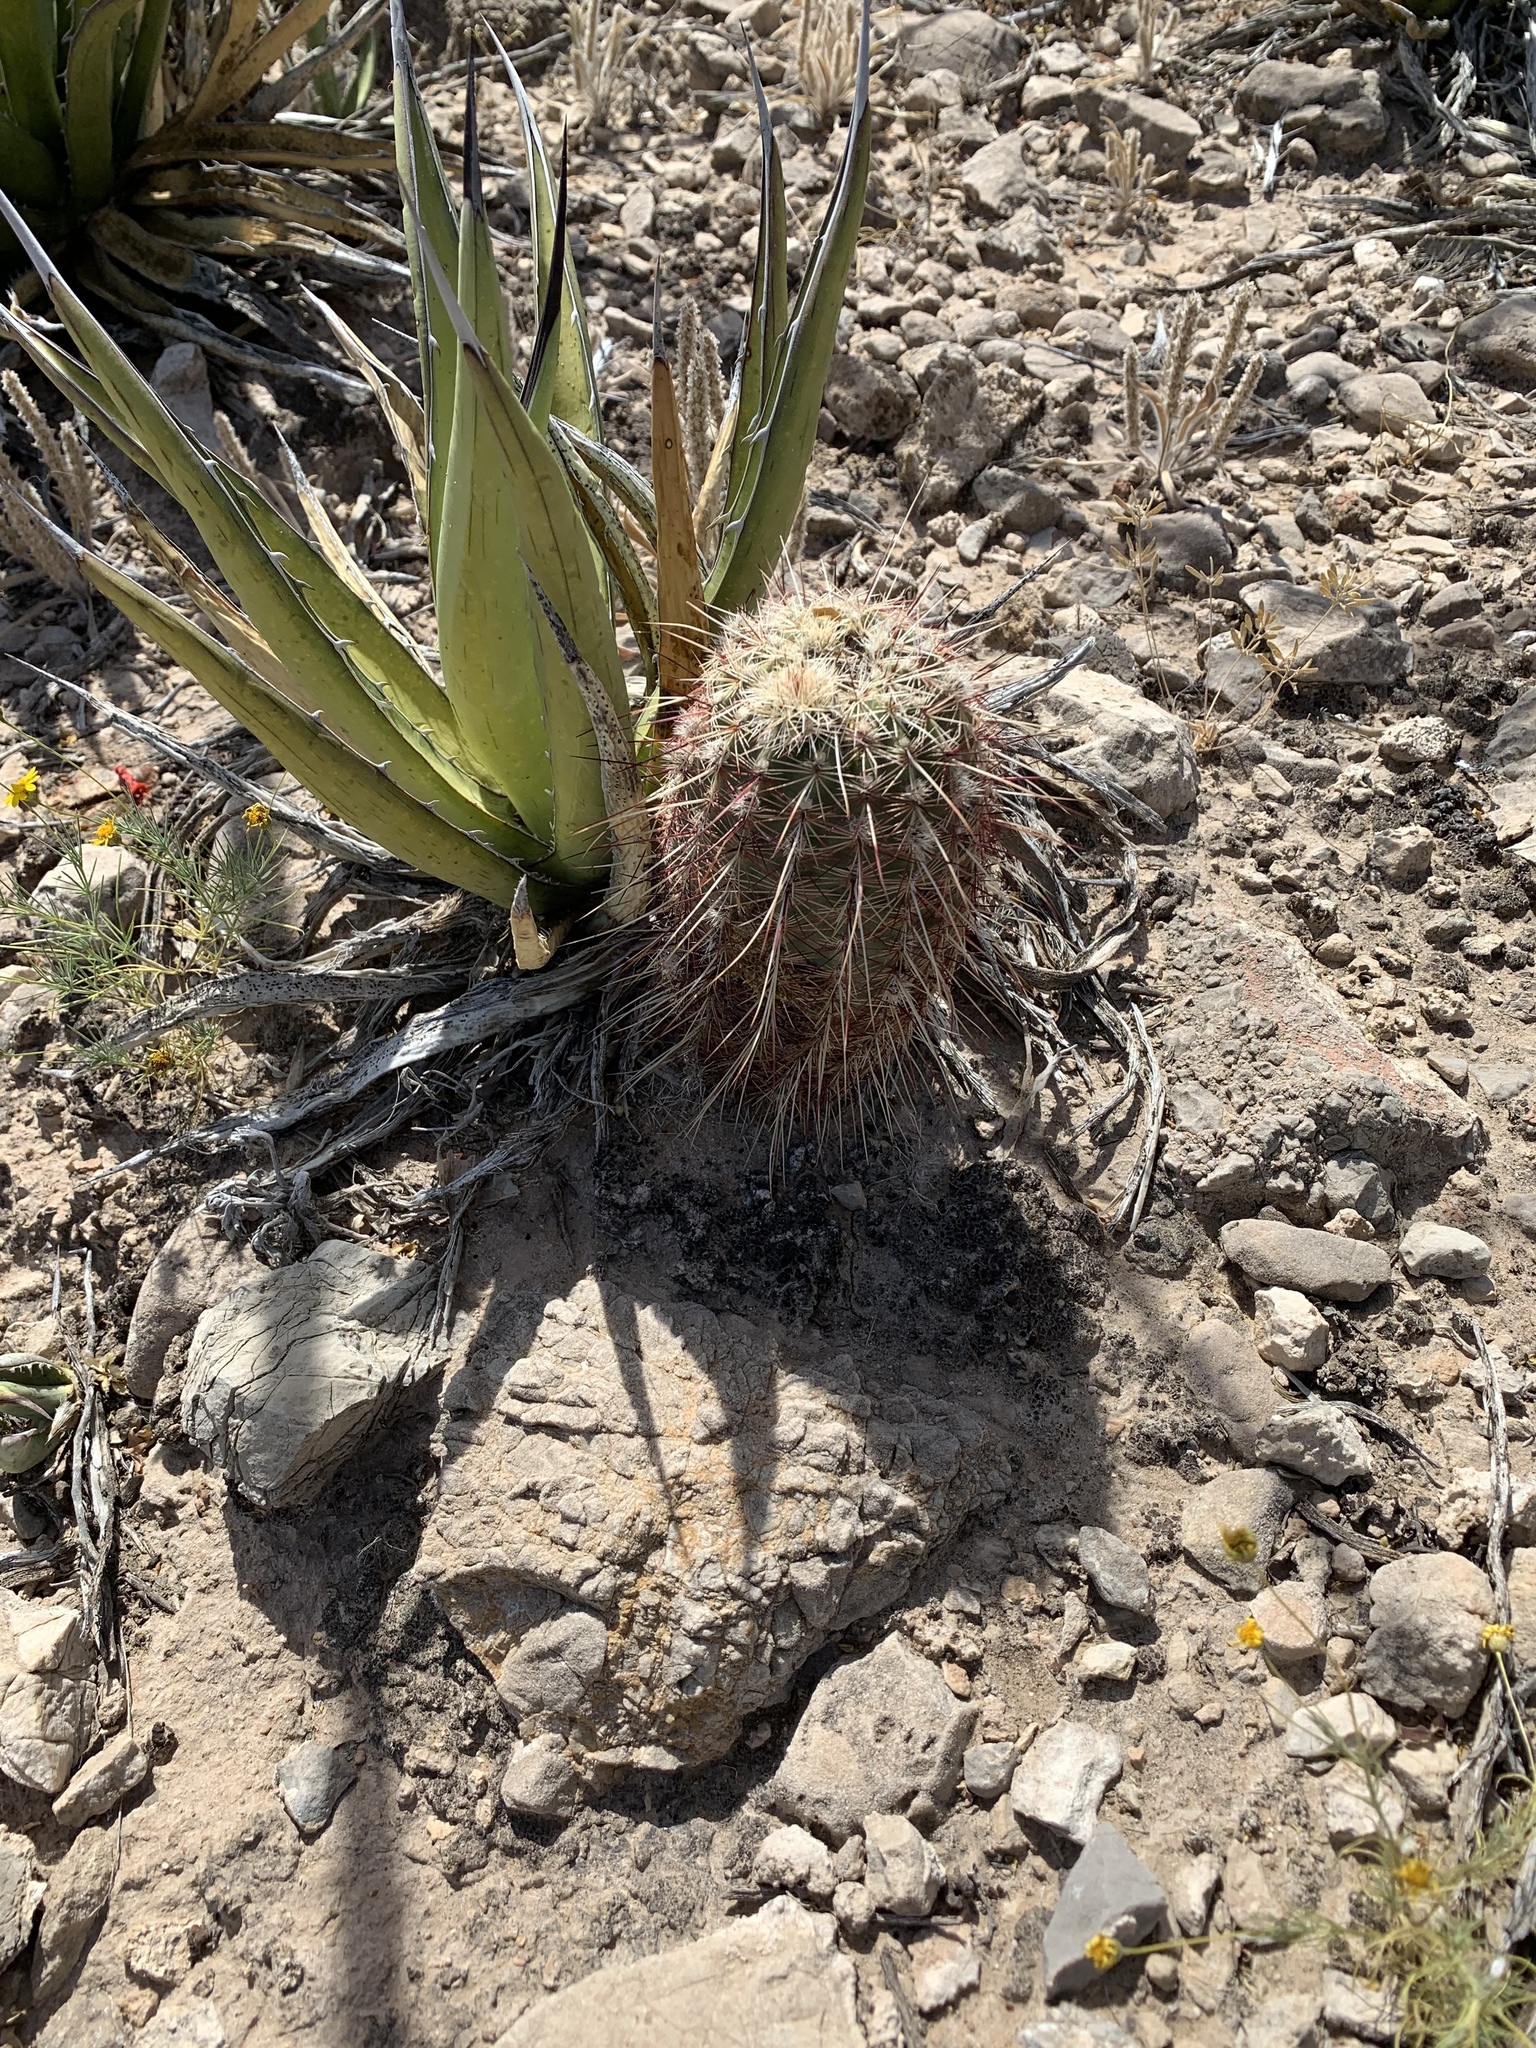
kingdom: Plantae
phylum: Tracheophyta
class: Magnoliopsida
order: Caryophyllales
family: Cactaceae
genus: Echinocereus
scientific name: Echinocereus viridiflorus
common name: Nylon hedgehog cactus
